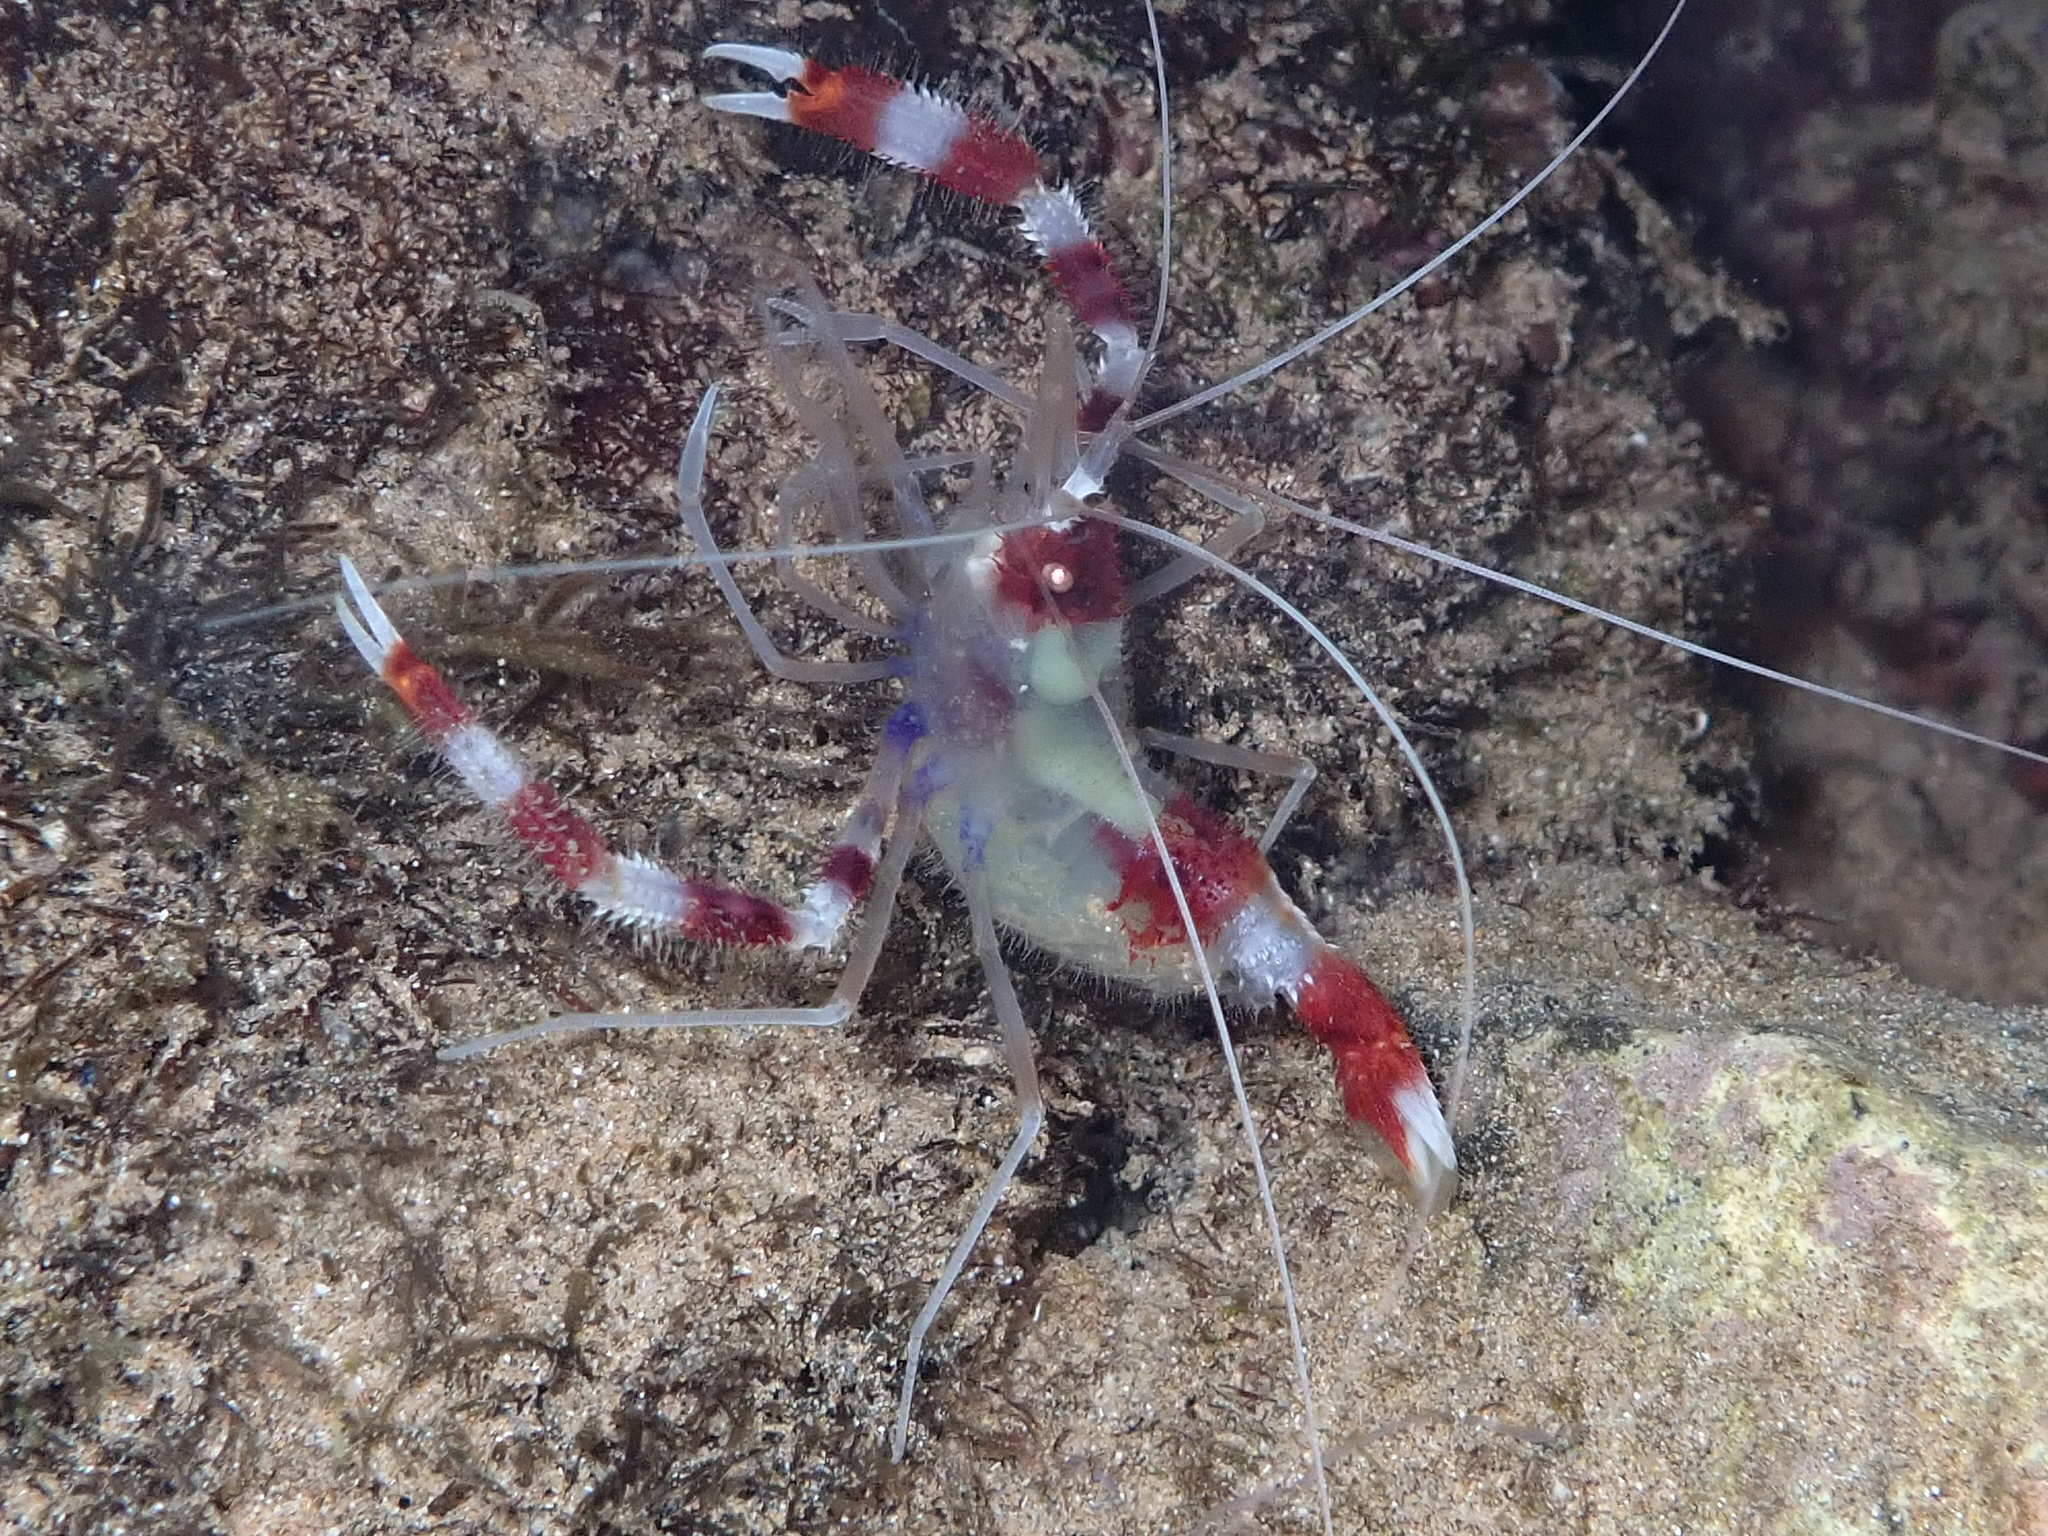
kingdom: Animalia
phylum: Arthropoda
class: Malacostraca
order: Decapoda
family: Stenopodidae
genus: Stenopus
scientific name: Stenopus hispidus
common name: Banded coral shrimp
